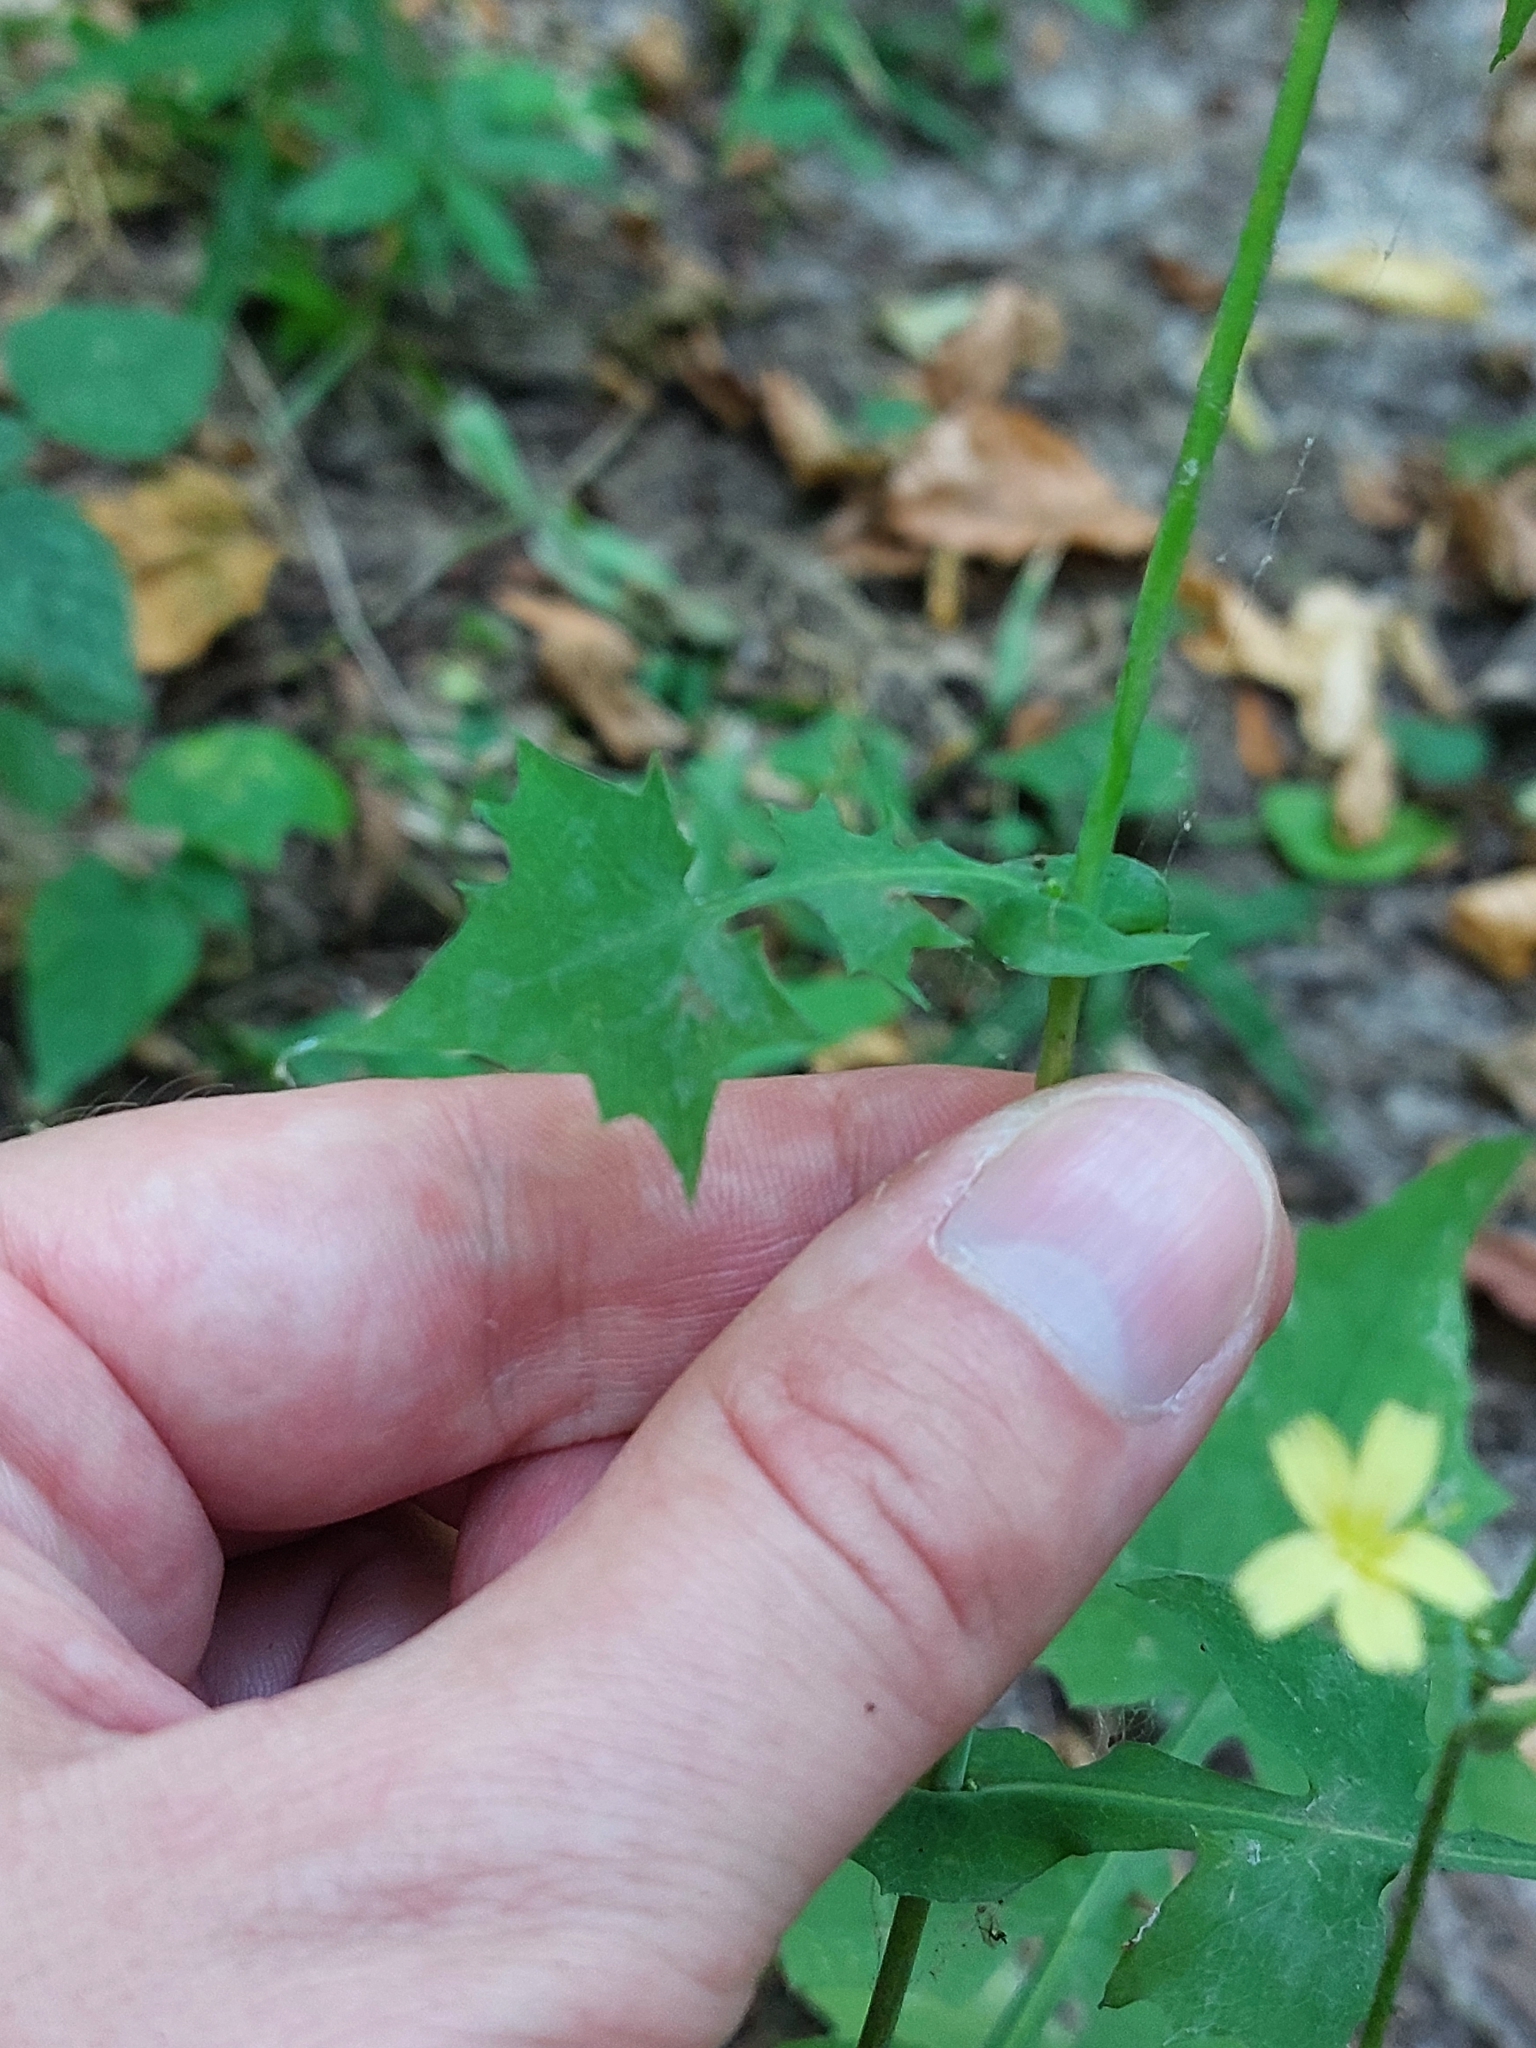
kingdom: Plantae
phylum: Tracheophyta
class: Magnoliopsida
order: Asterales
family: Asteraceae
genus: Mycelis
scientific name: Mycelis muralis
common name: Wall lettuce
